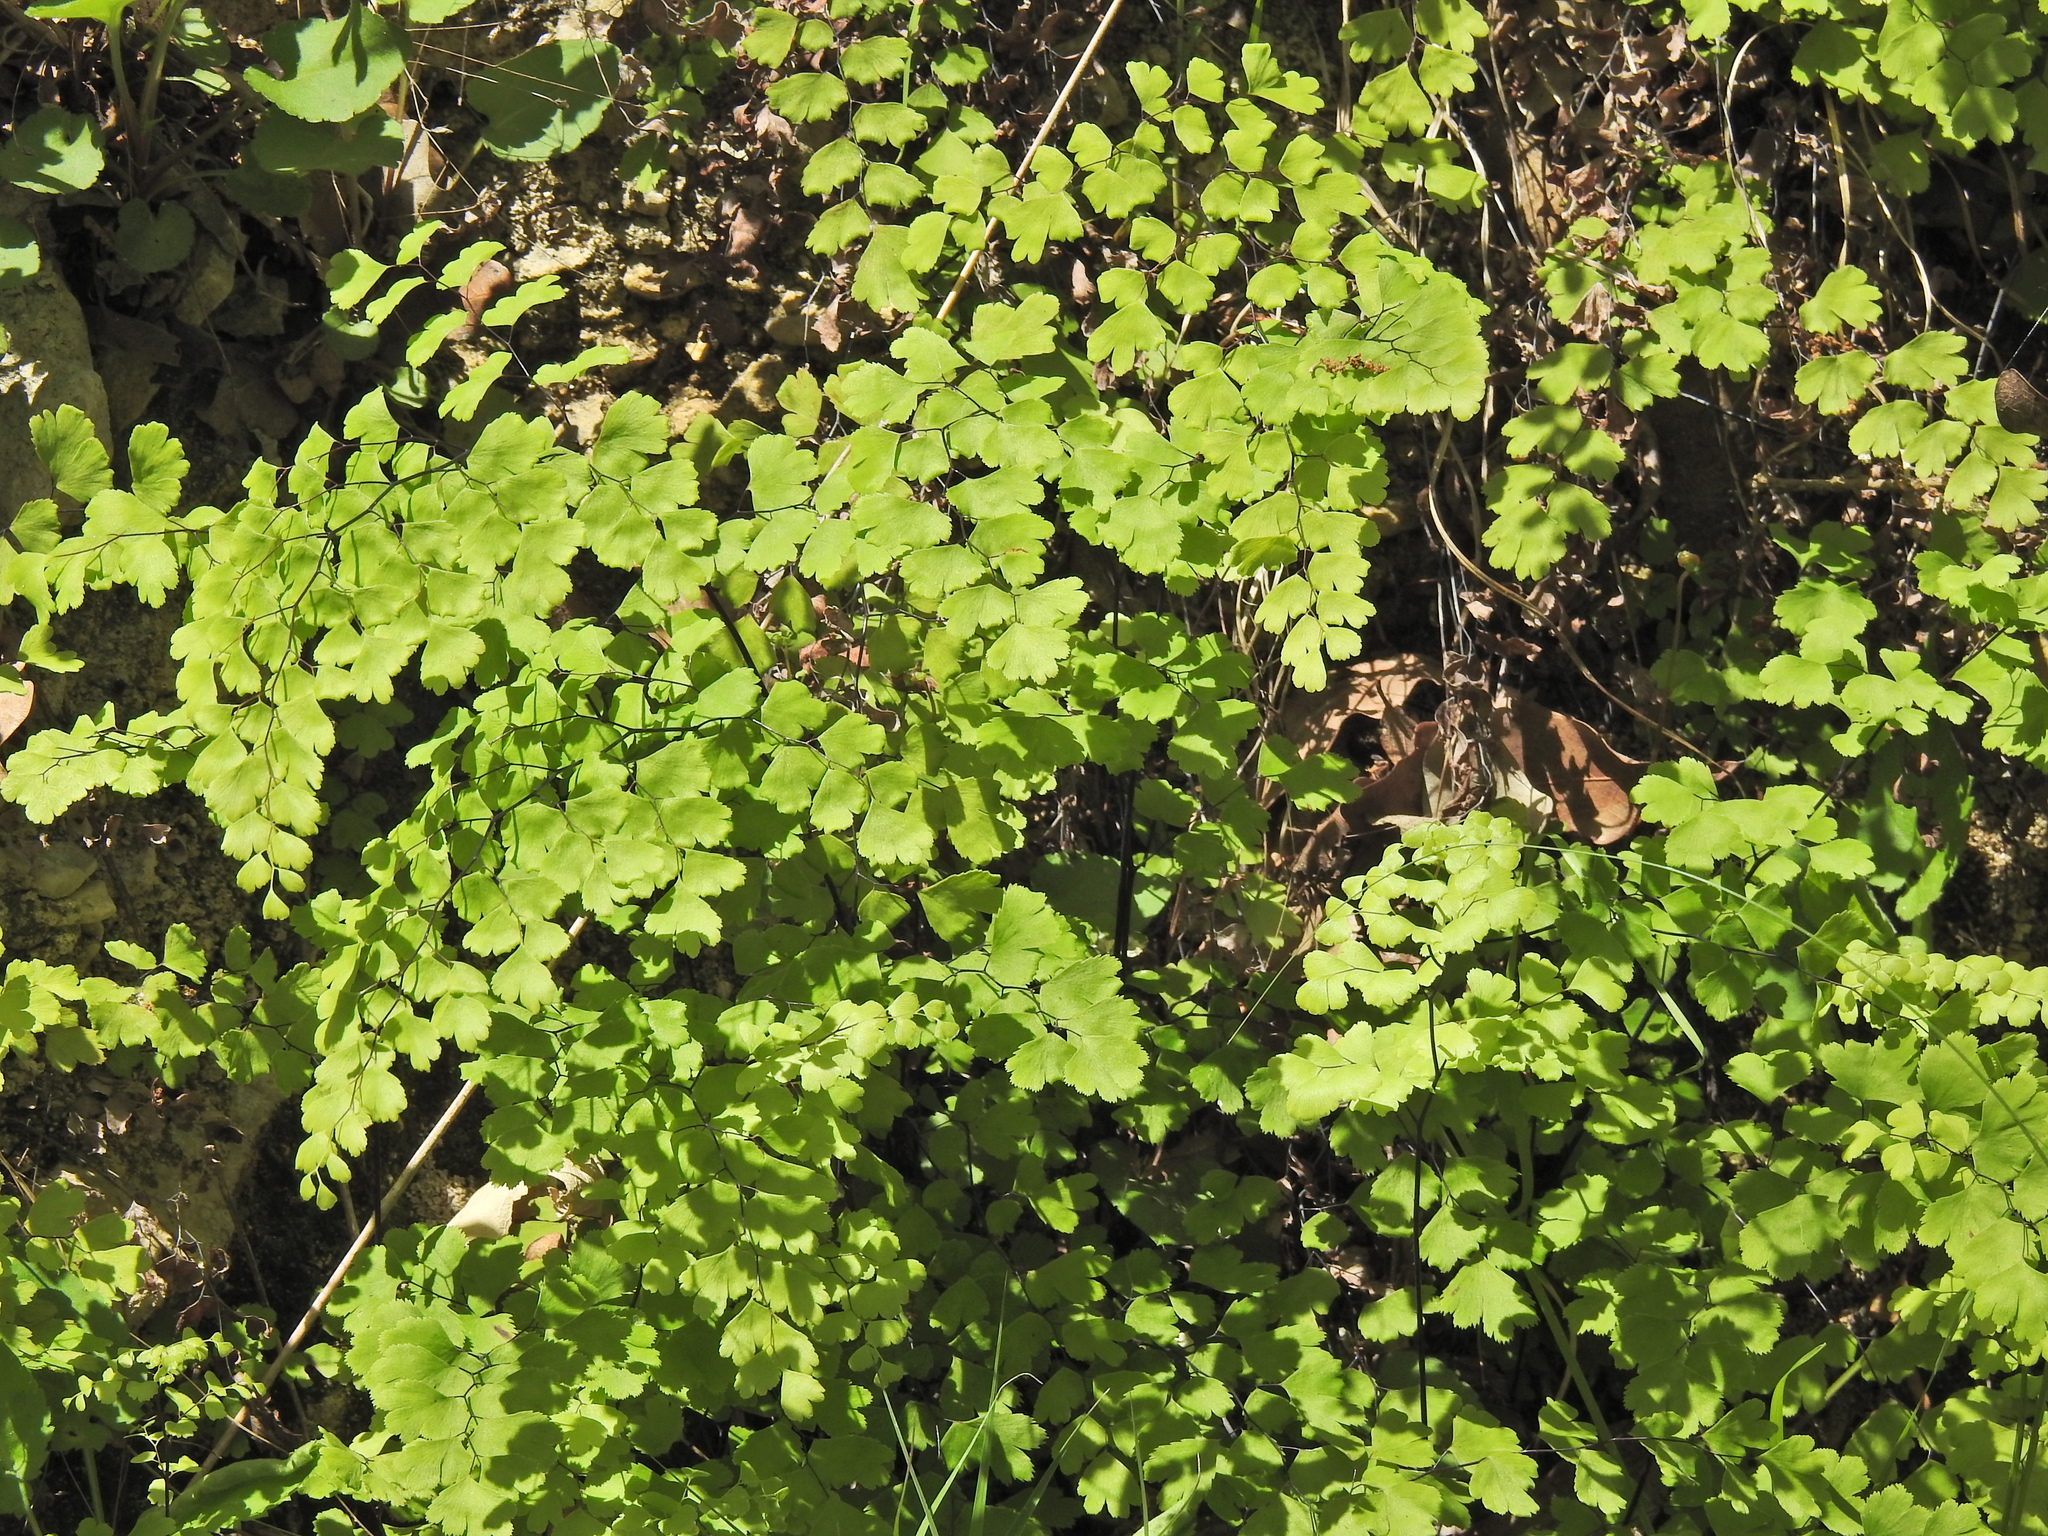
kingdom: Plantae
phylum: Tracheophyta
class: Polypodiopsida
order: Polypodiales
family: Pteridaceae
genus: Adiantum
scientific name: Adiantum capillus-veneris
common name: Maidenhair fern
